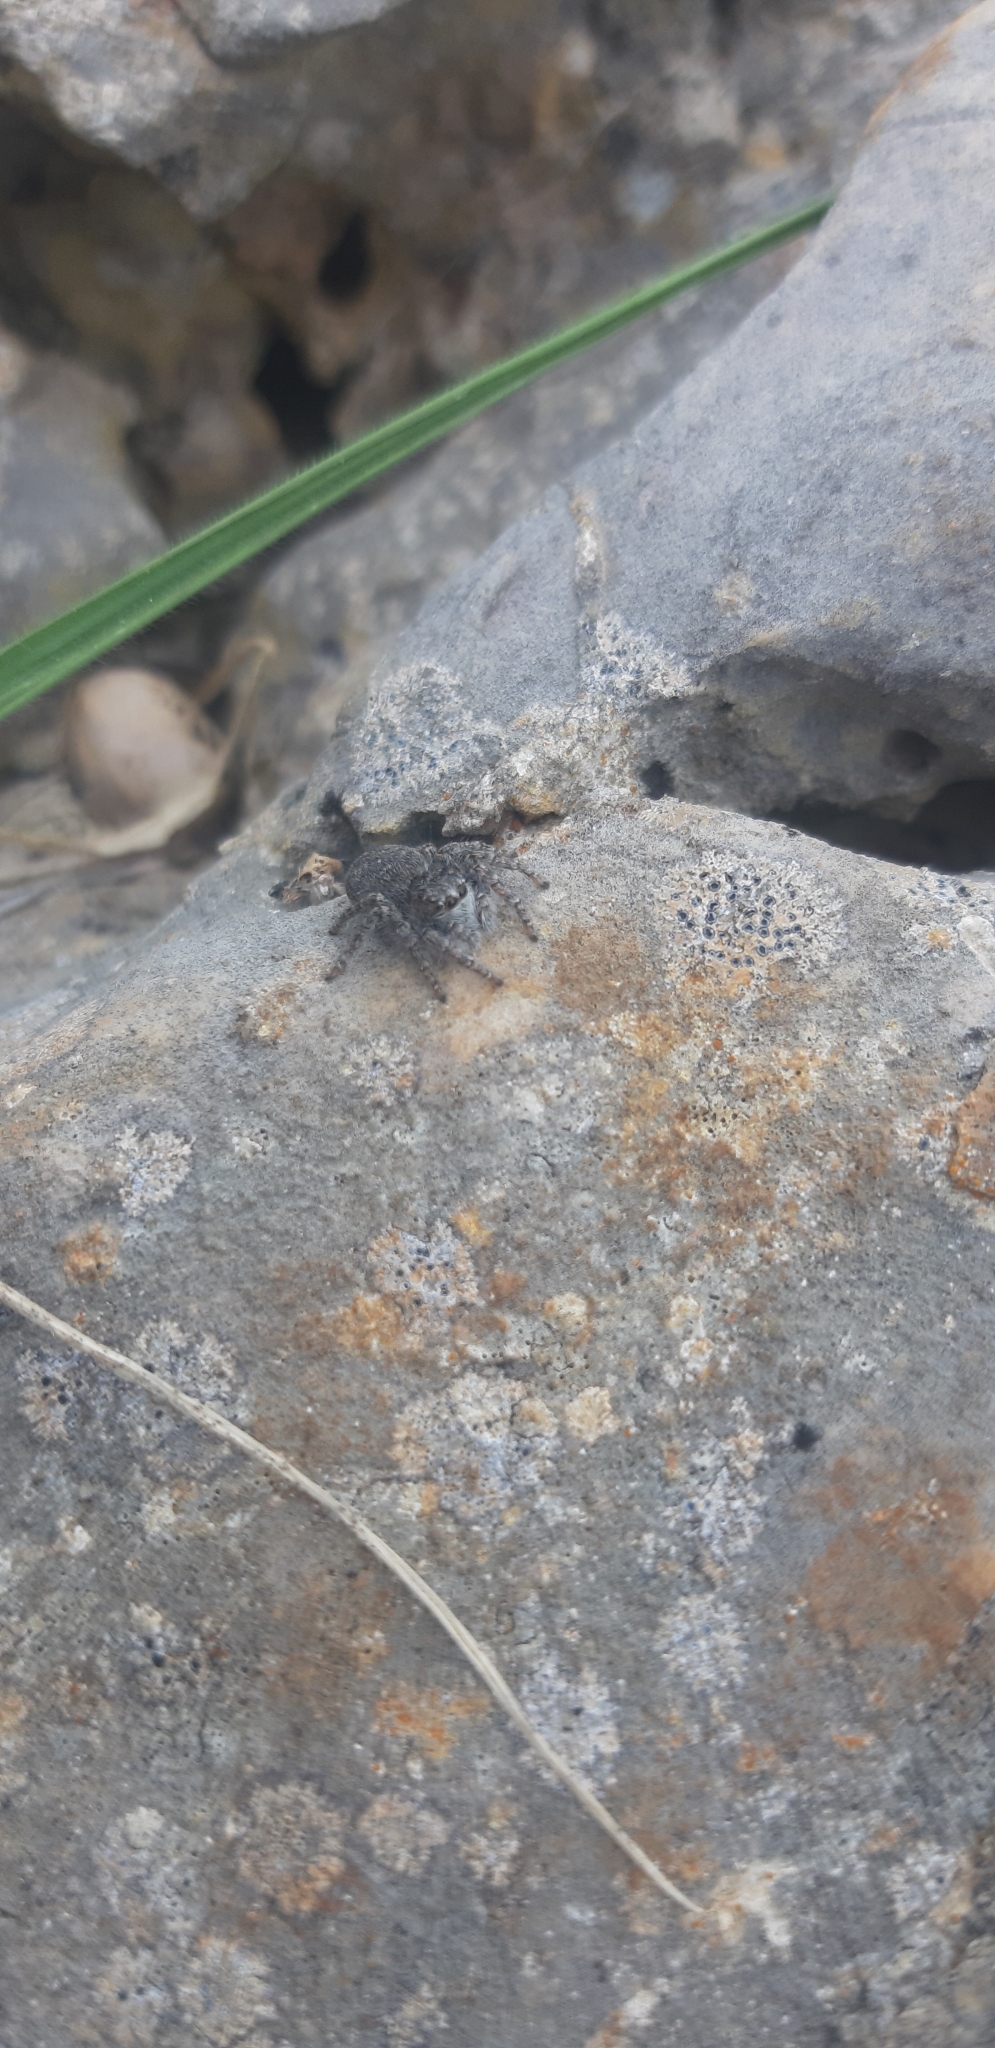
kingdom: Animalia
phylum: Arthropoda
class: Arachnida
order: Araneae
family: Salticidae
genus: Philaeus
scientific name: Philaeus chrysops
